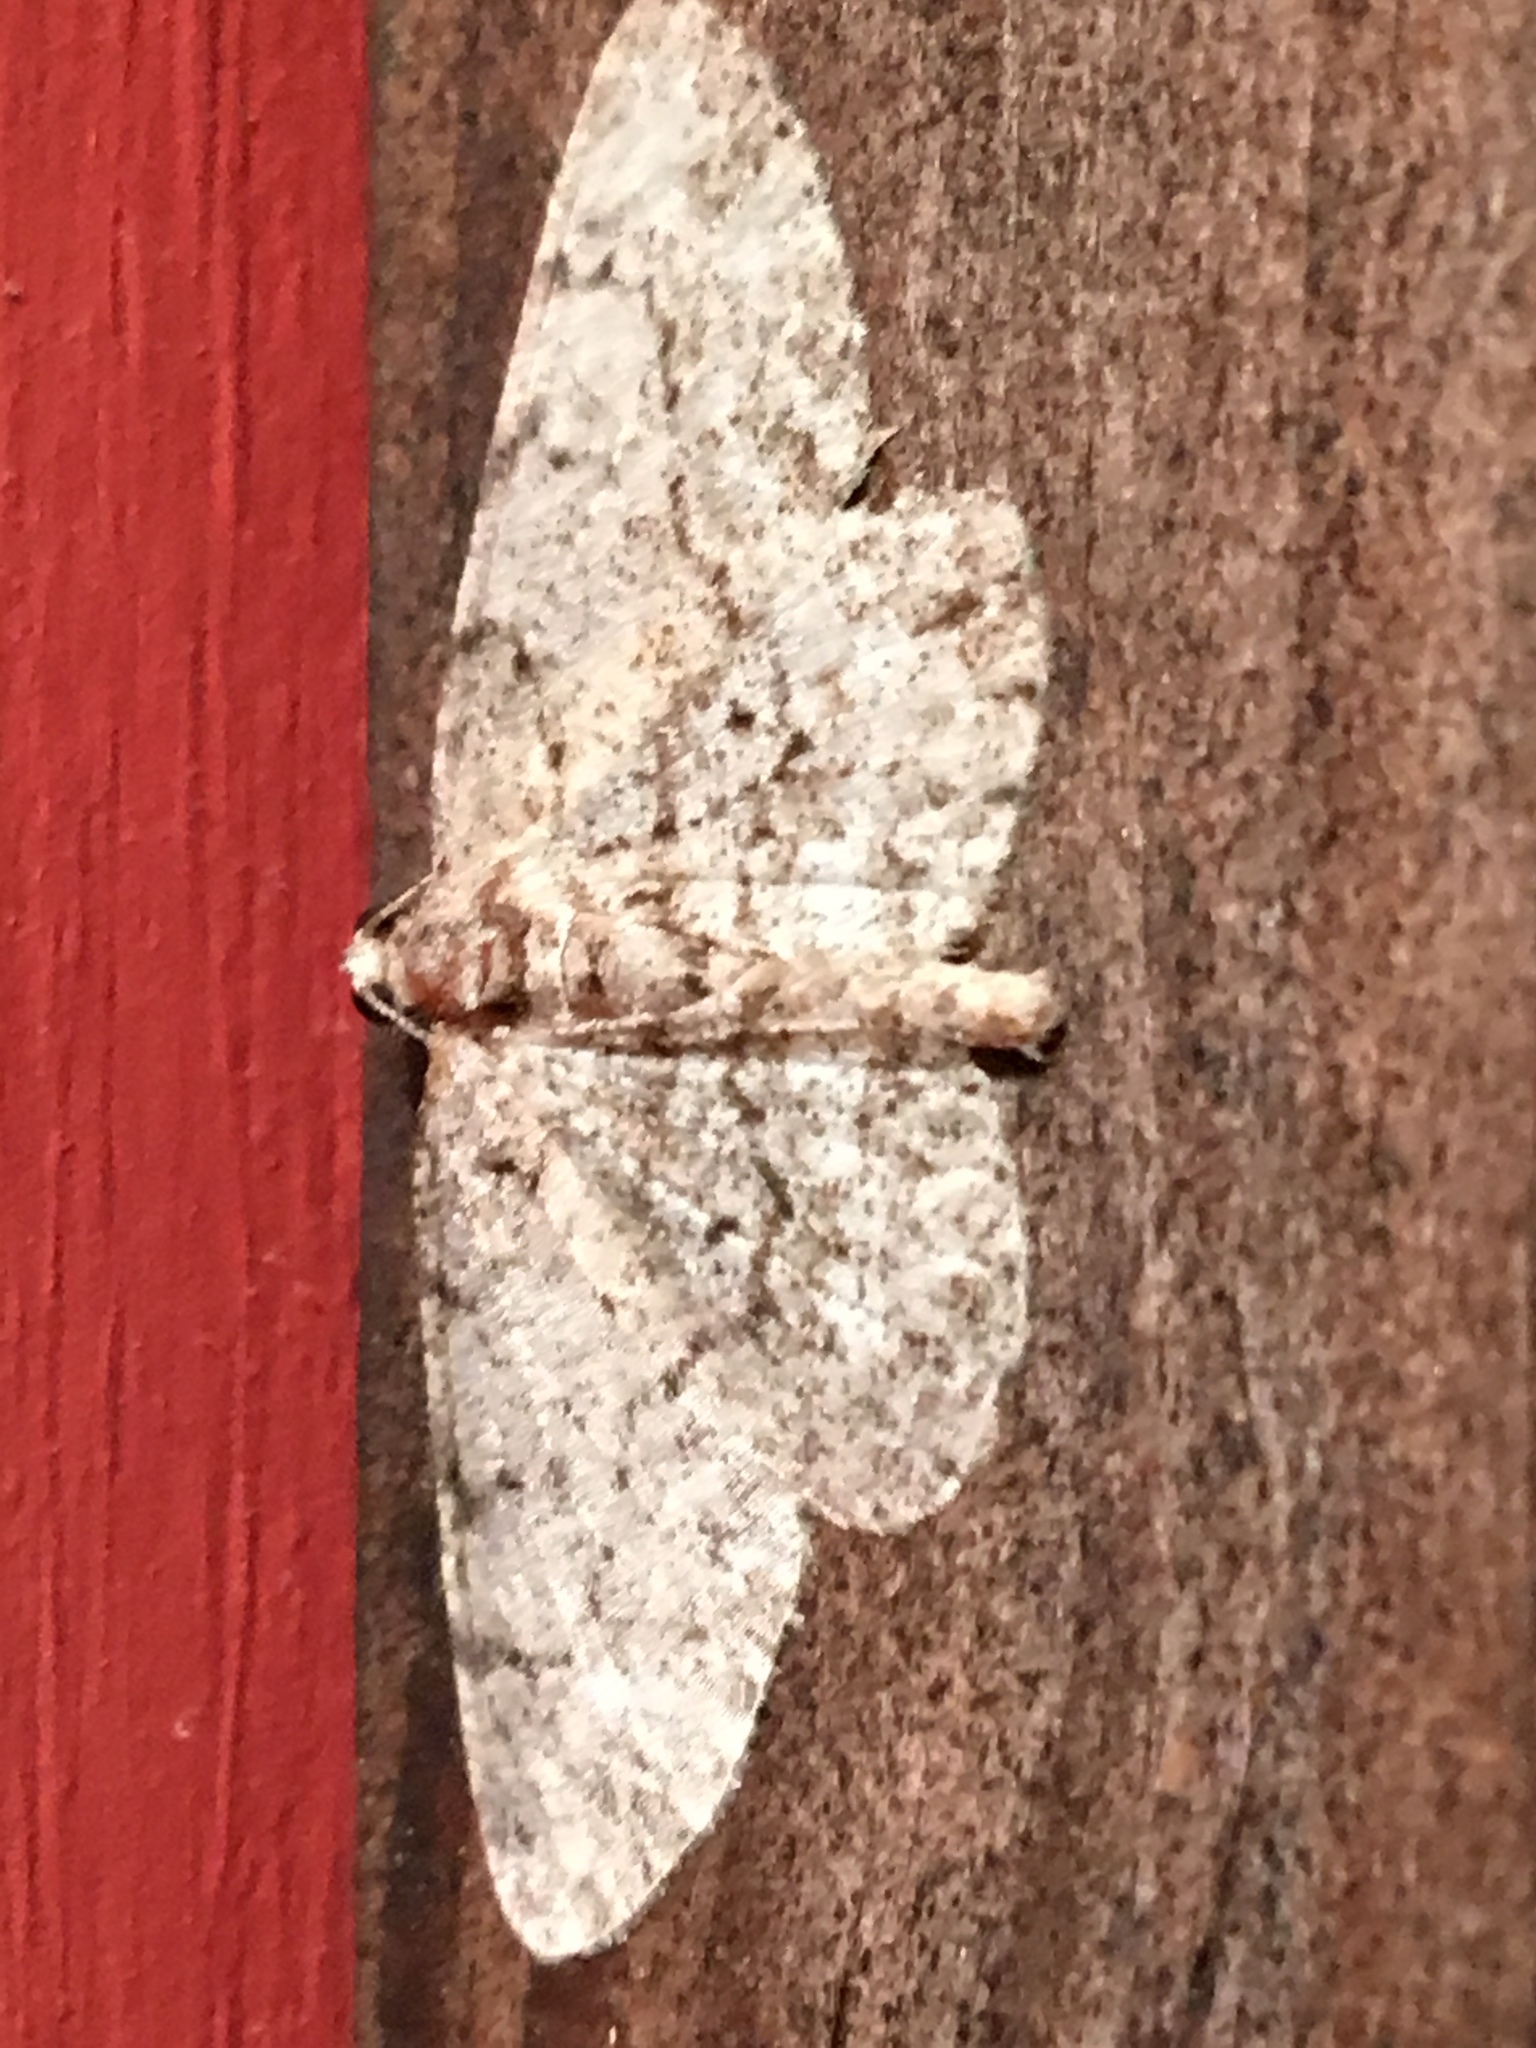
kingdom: Animalia
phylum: Arthropoda
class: Insecta
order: Lepidoptera
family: Geometridae
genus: Protoboarmia
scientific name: Protoboarmia porcelaria
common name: Porcelain gray
